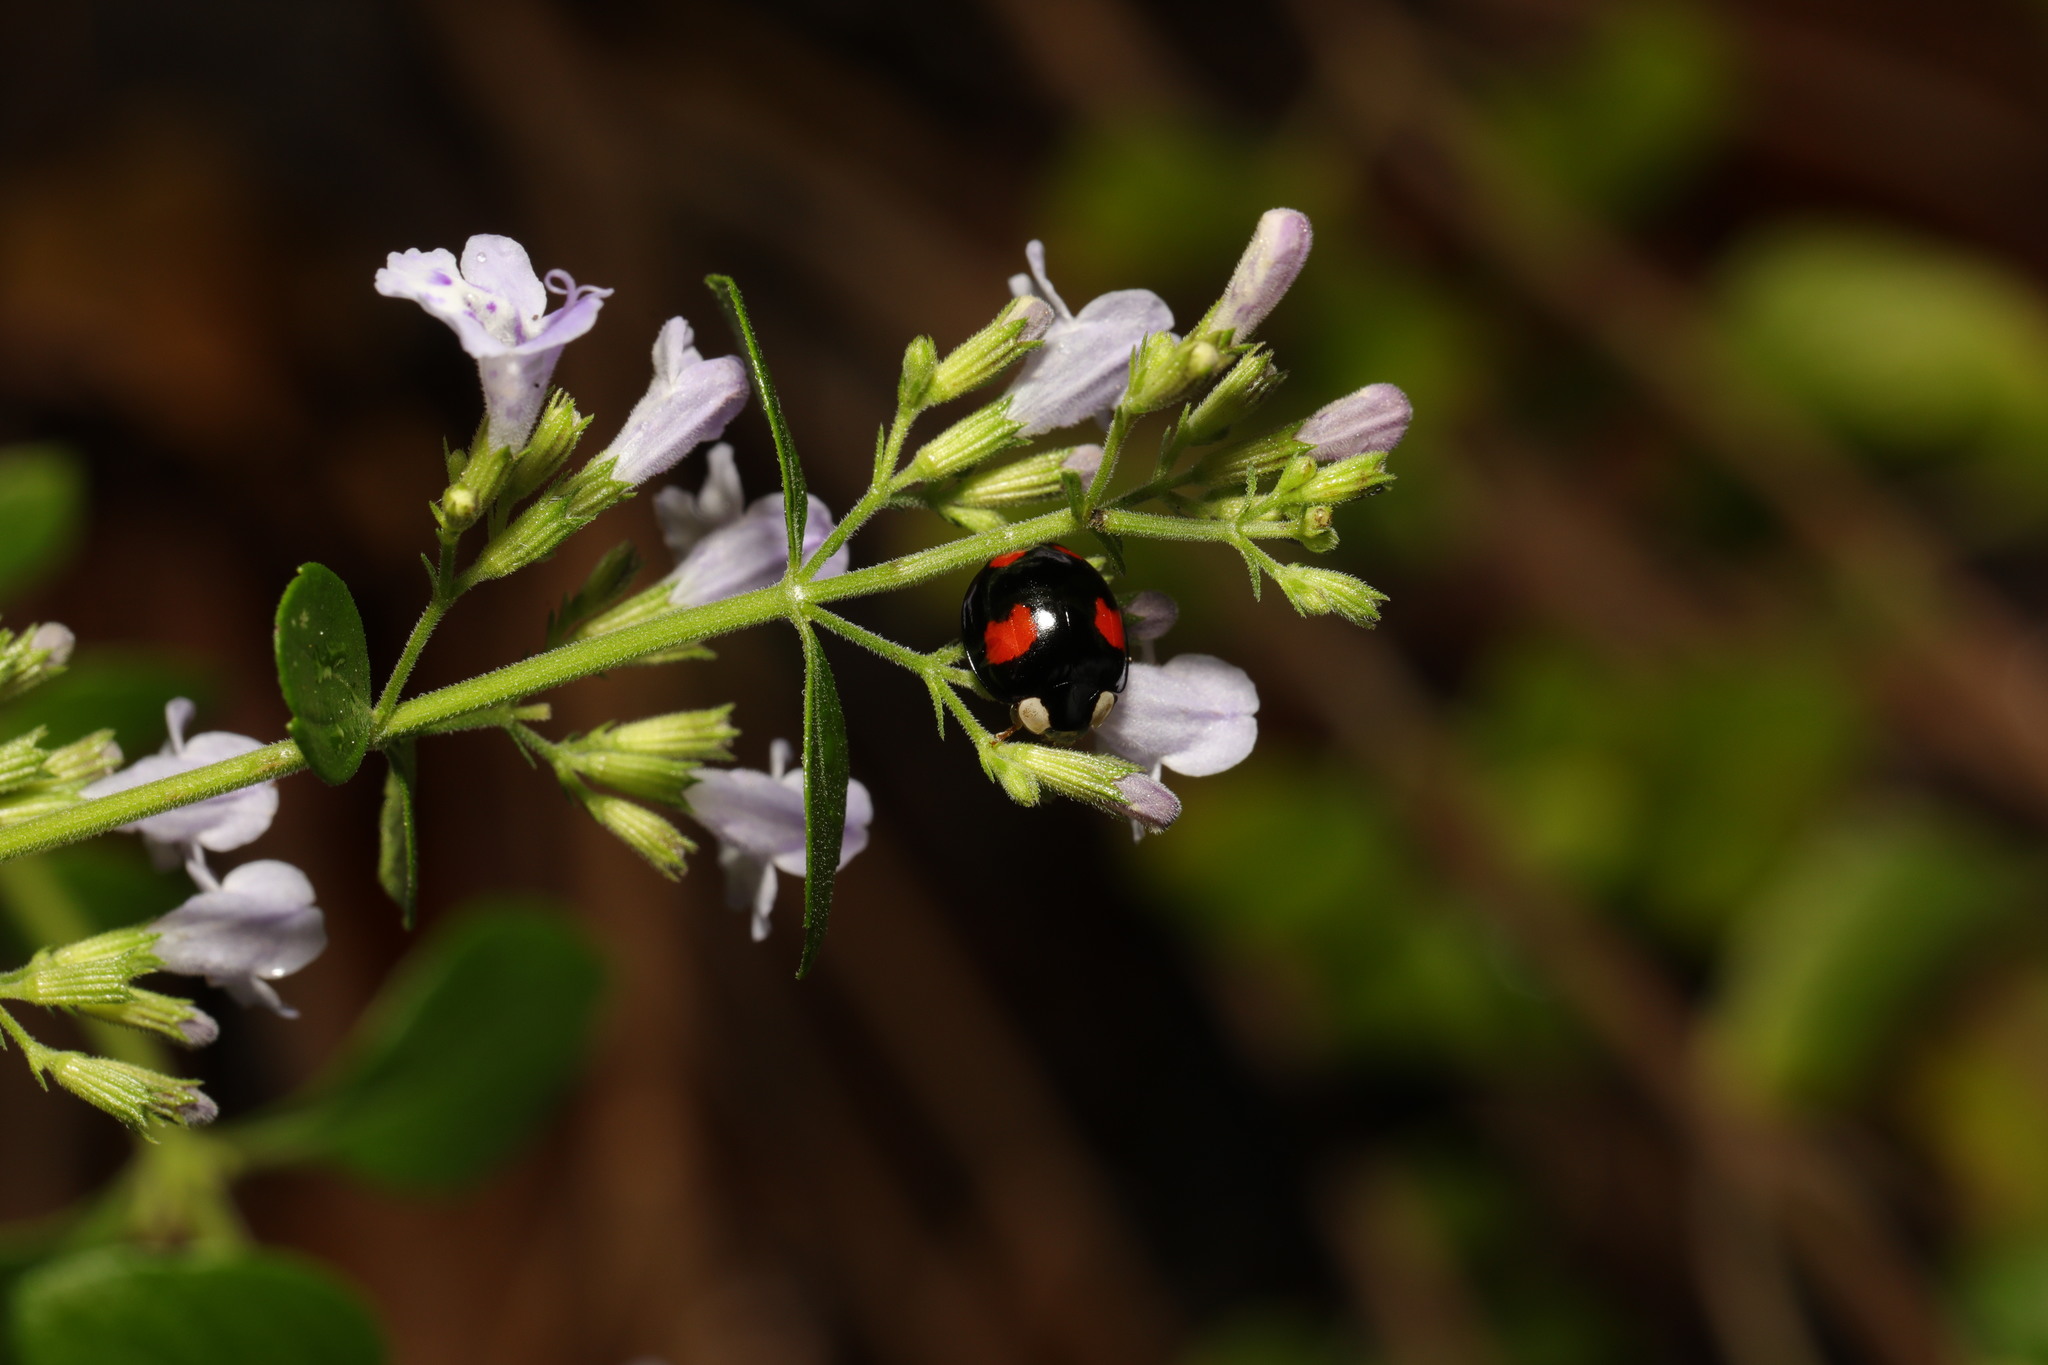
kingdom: Animalia
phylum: Arthropoda
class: Insecta
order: Coleoptera
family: Coccinellidae
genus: Harmonia
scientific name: Harmonia axyridis
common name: Harlequin ladybird
